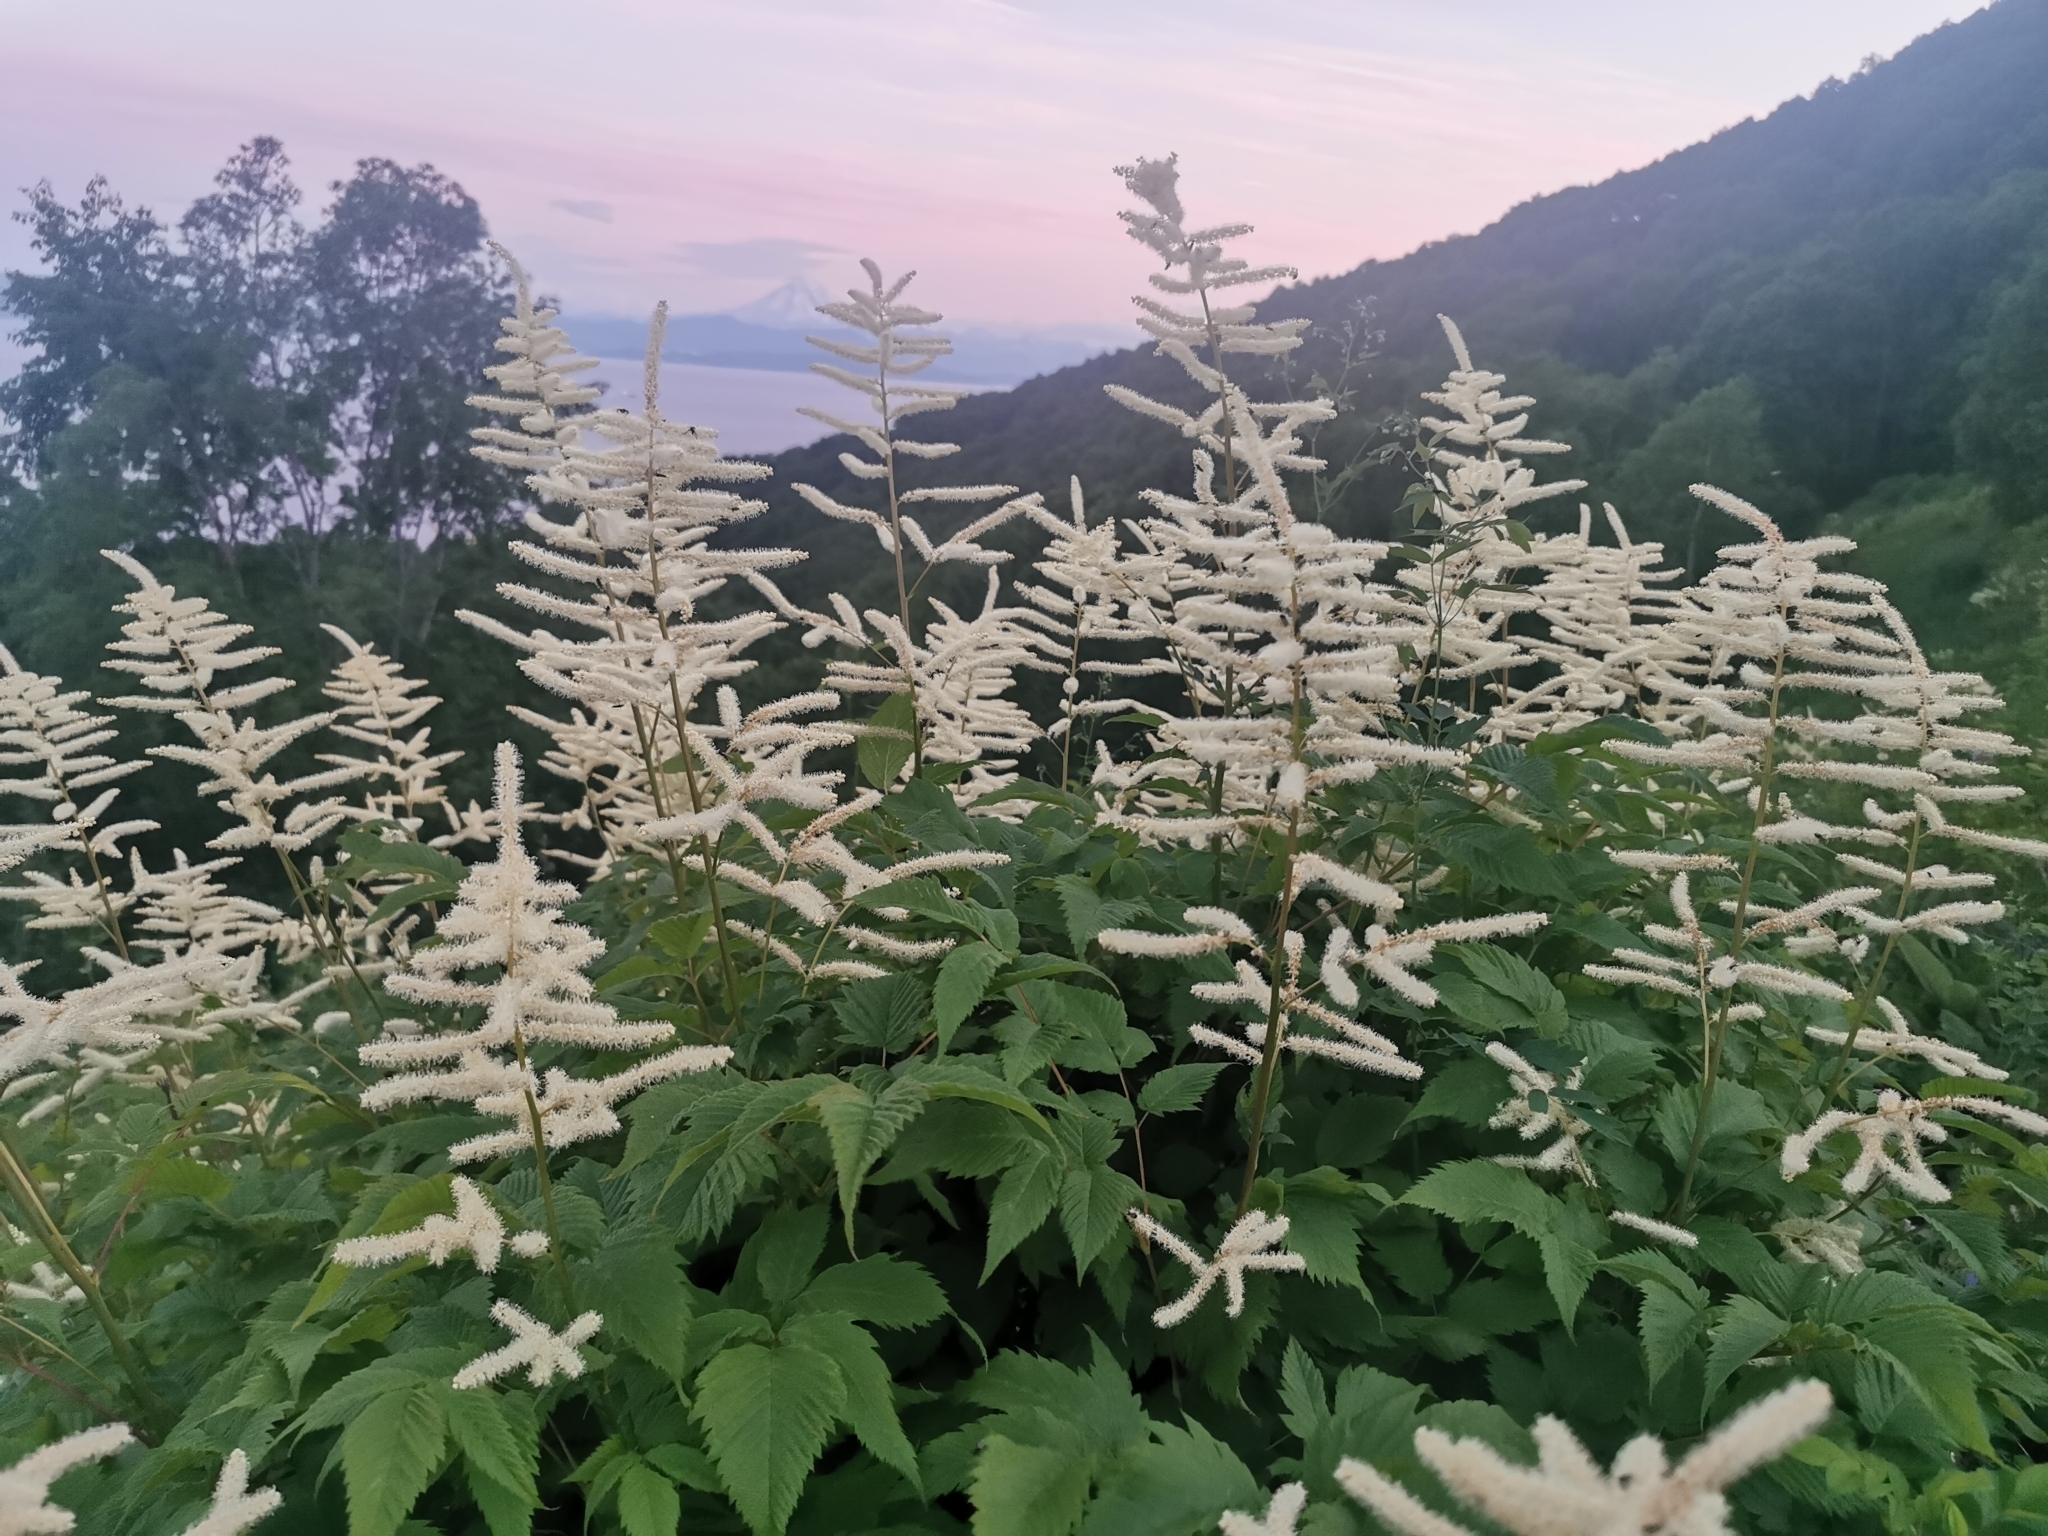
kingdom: Plantae
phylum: Tracheophyta
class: Magnoliopsida
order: Rosales
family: Rosaceae
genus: Aruncus
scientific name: Aruncus dioicus
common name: Buck's-beard
